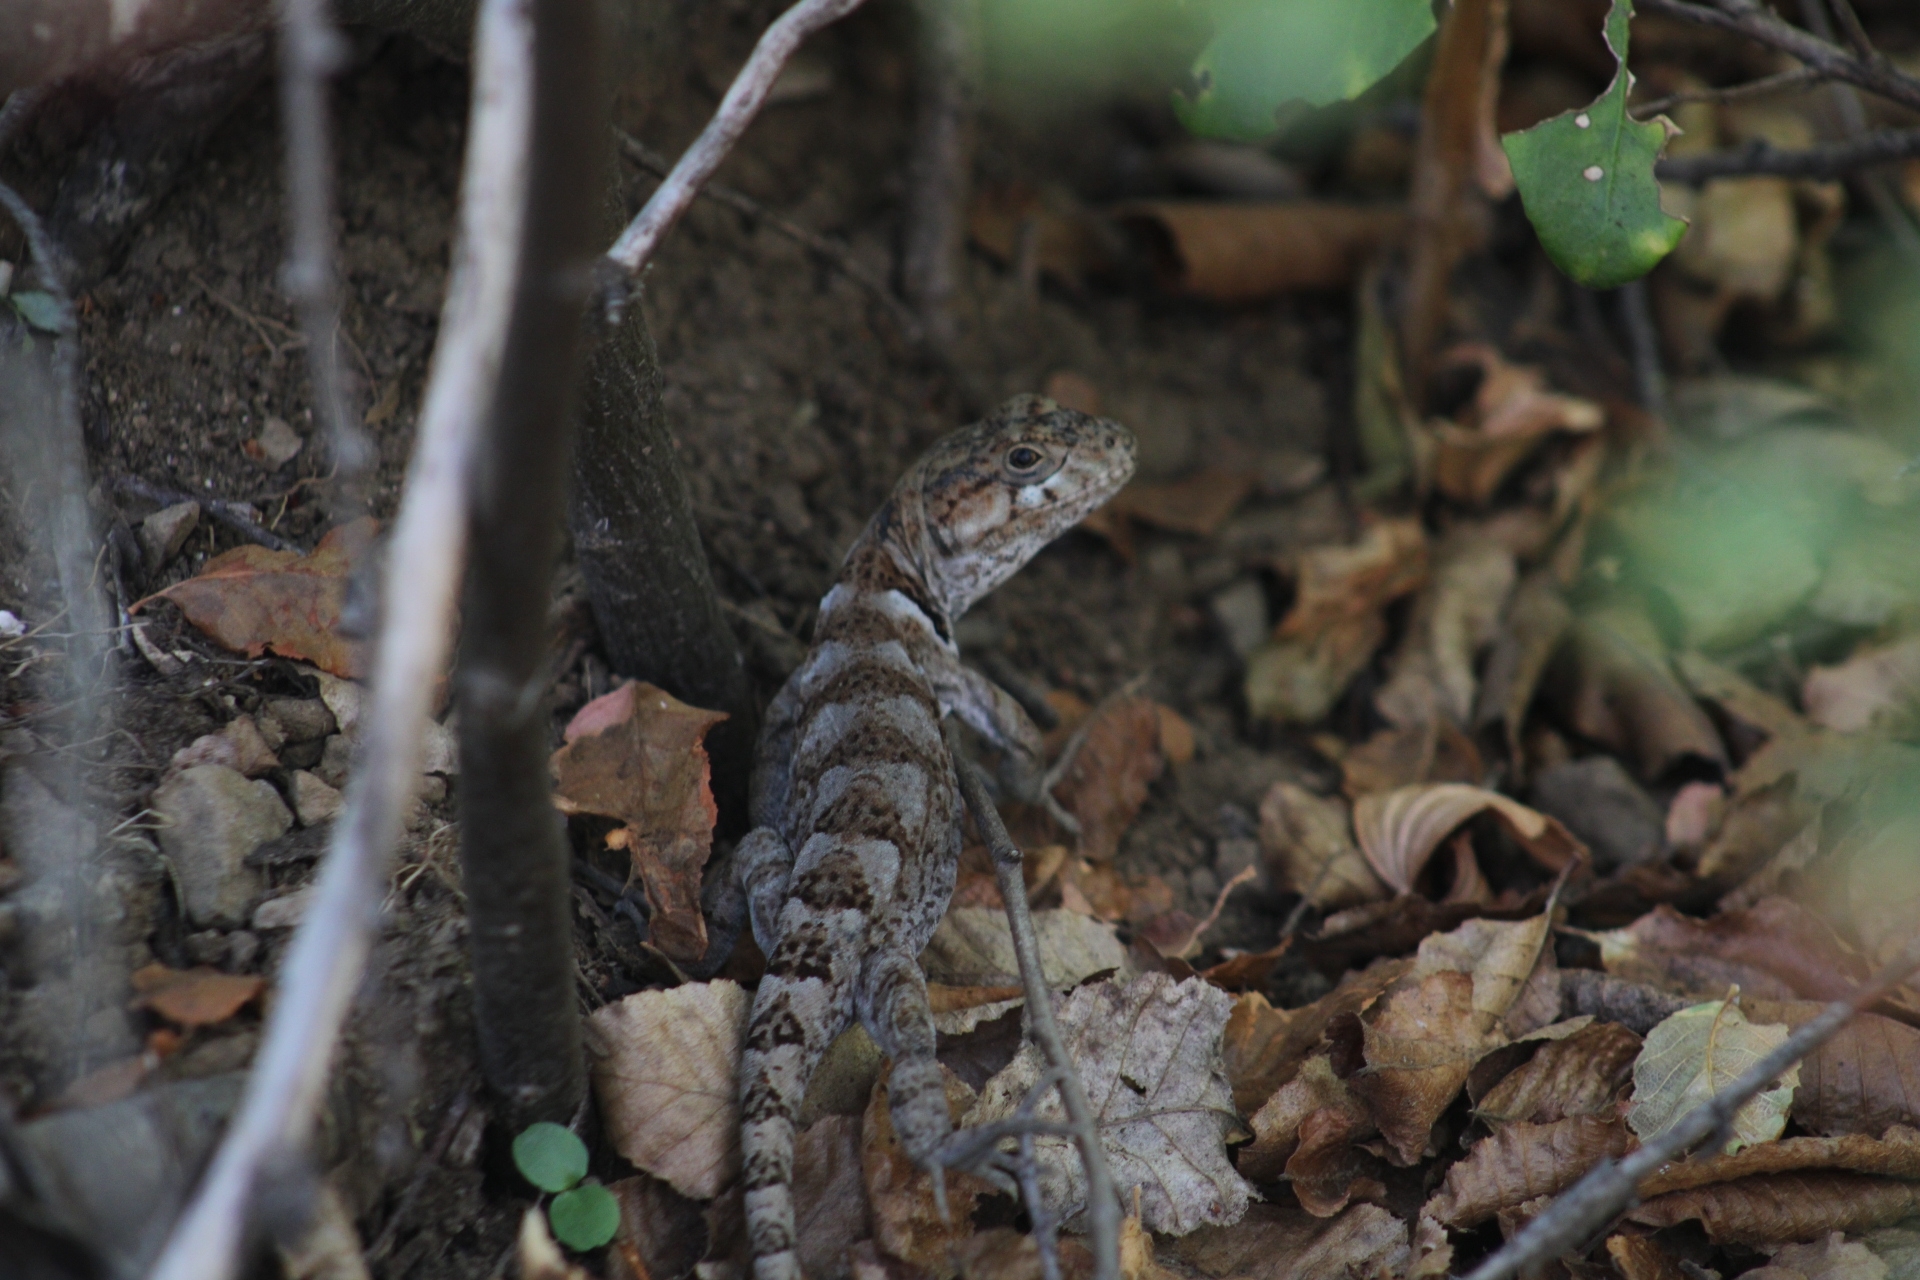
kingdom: Animalia
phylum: Chordata
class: Squamata
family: Leiosauridae
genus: Pristidactylus
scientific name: Pristidactylus torquatus
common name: Southern grumbler
